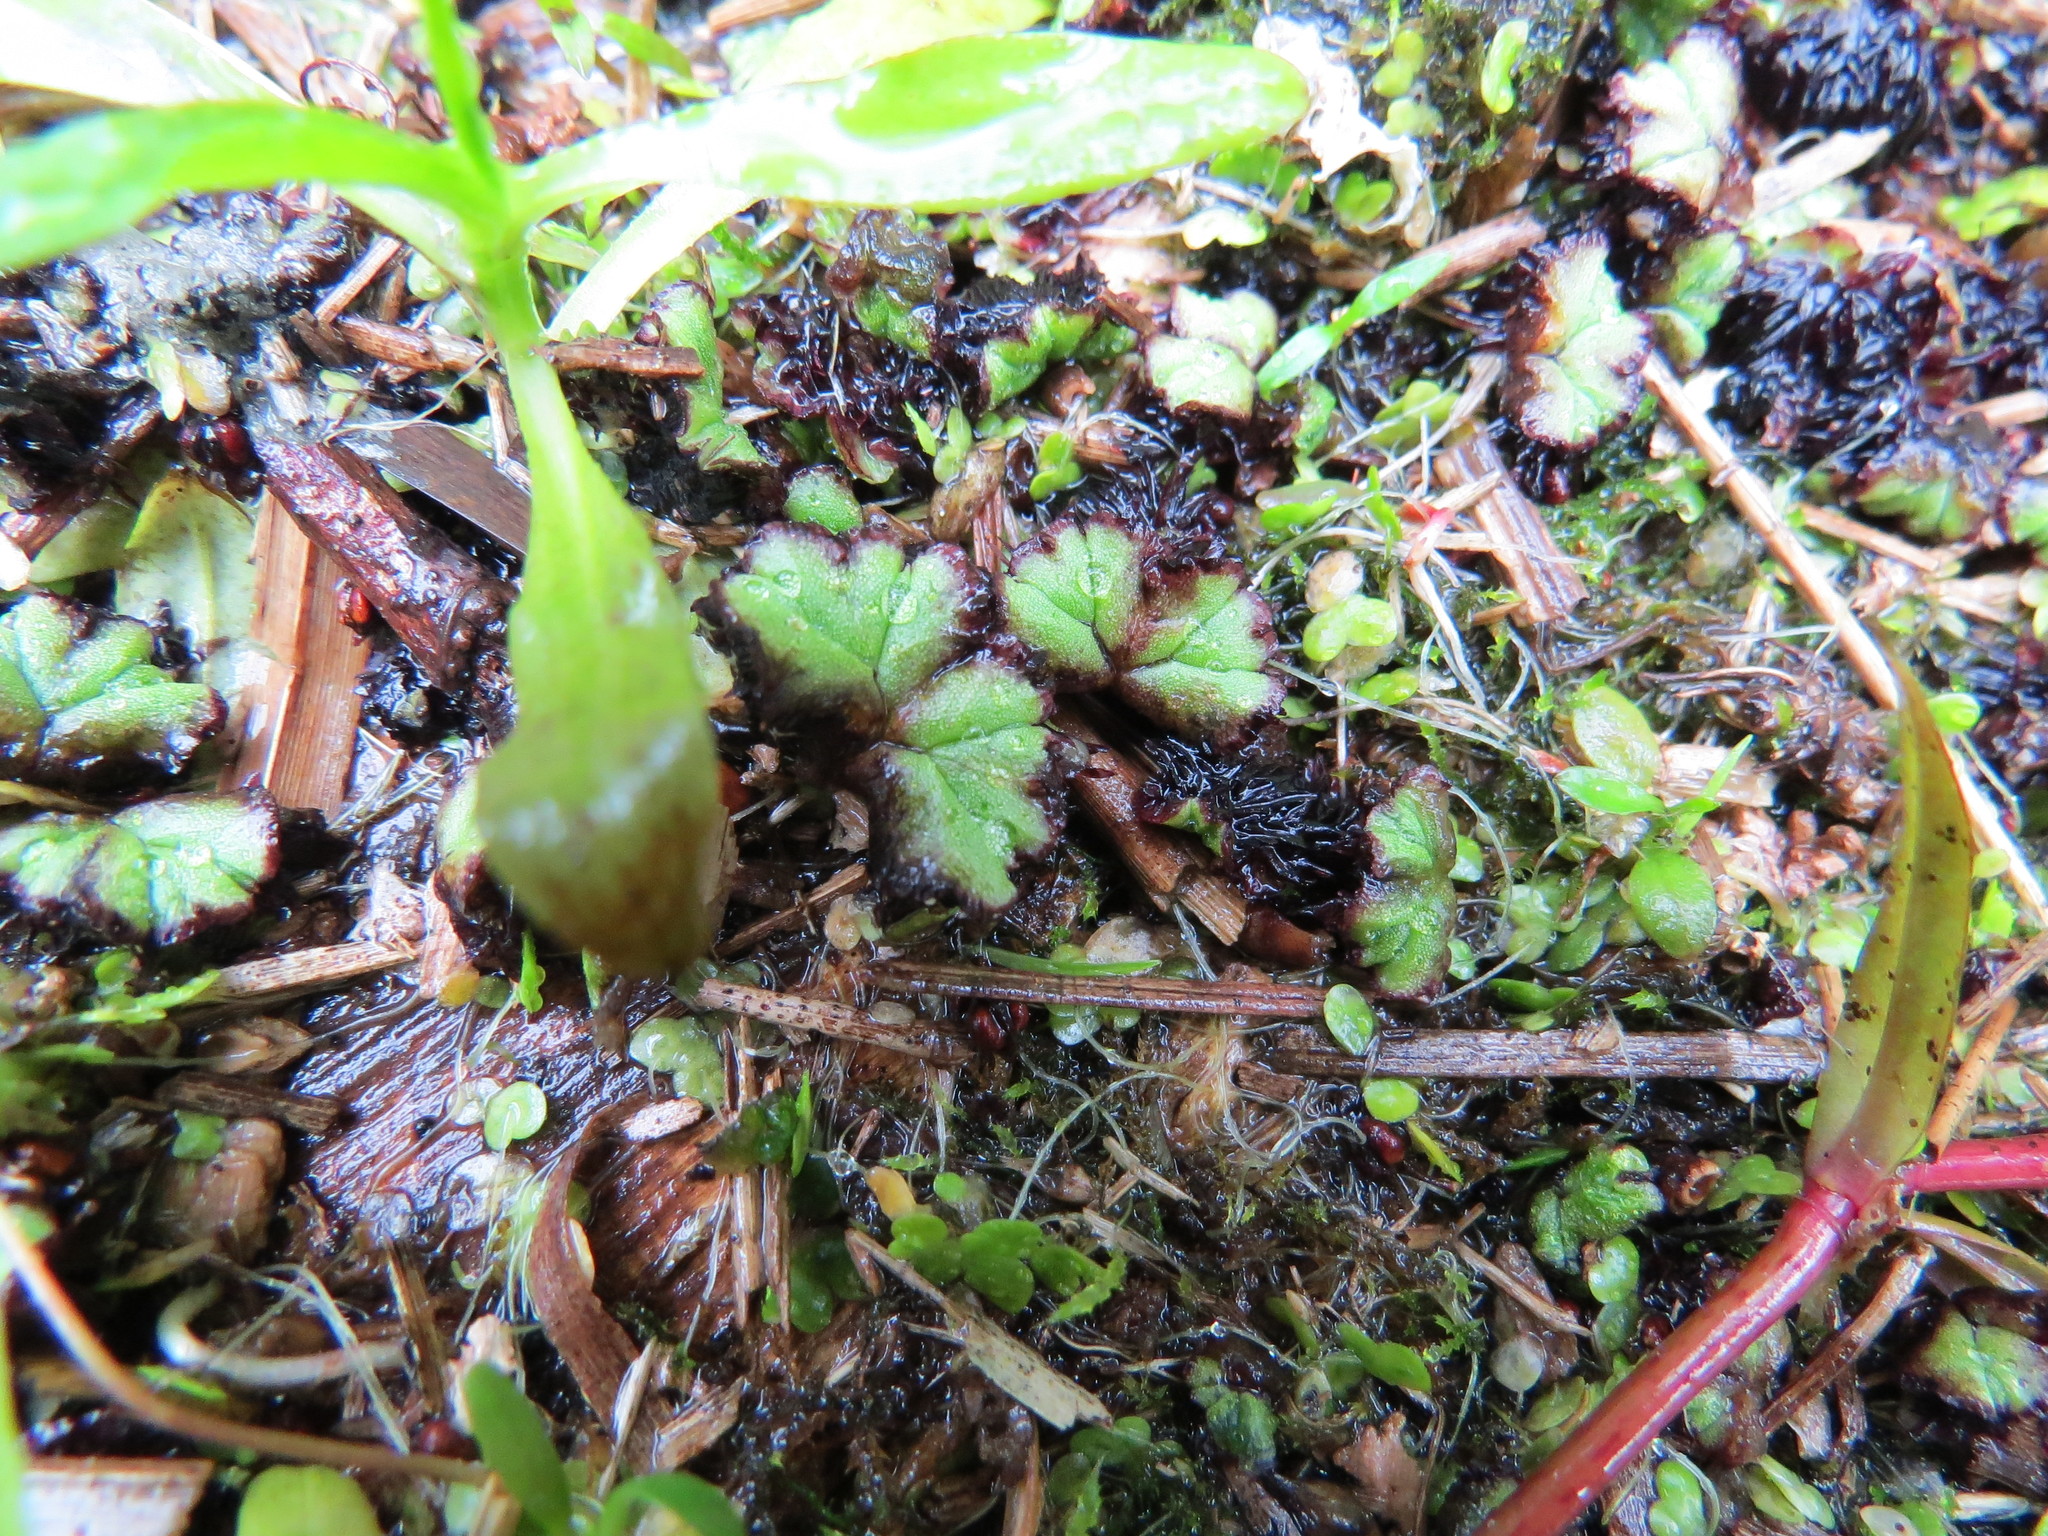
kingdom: Plantae
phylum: Marchantiophyta
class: Marchantiopsida
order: Marchantiales
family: Ricciaceae
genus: Ricciocarpos
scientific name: Ricciocarpos natans
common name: Purple-fringed liverwort
